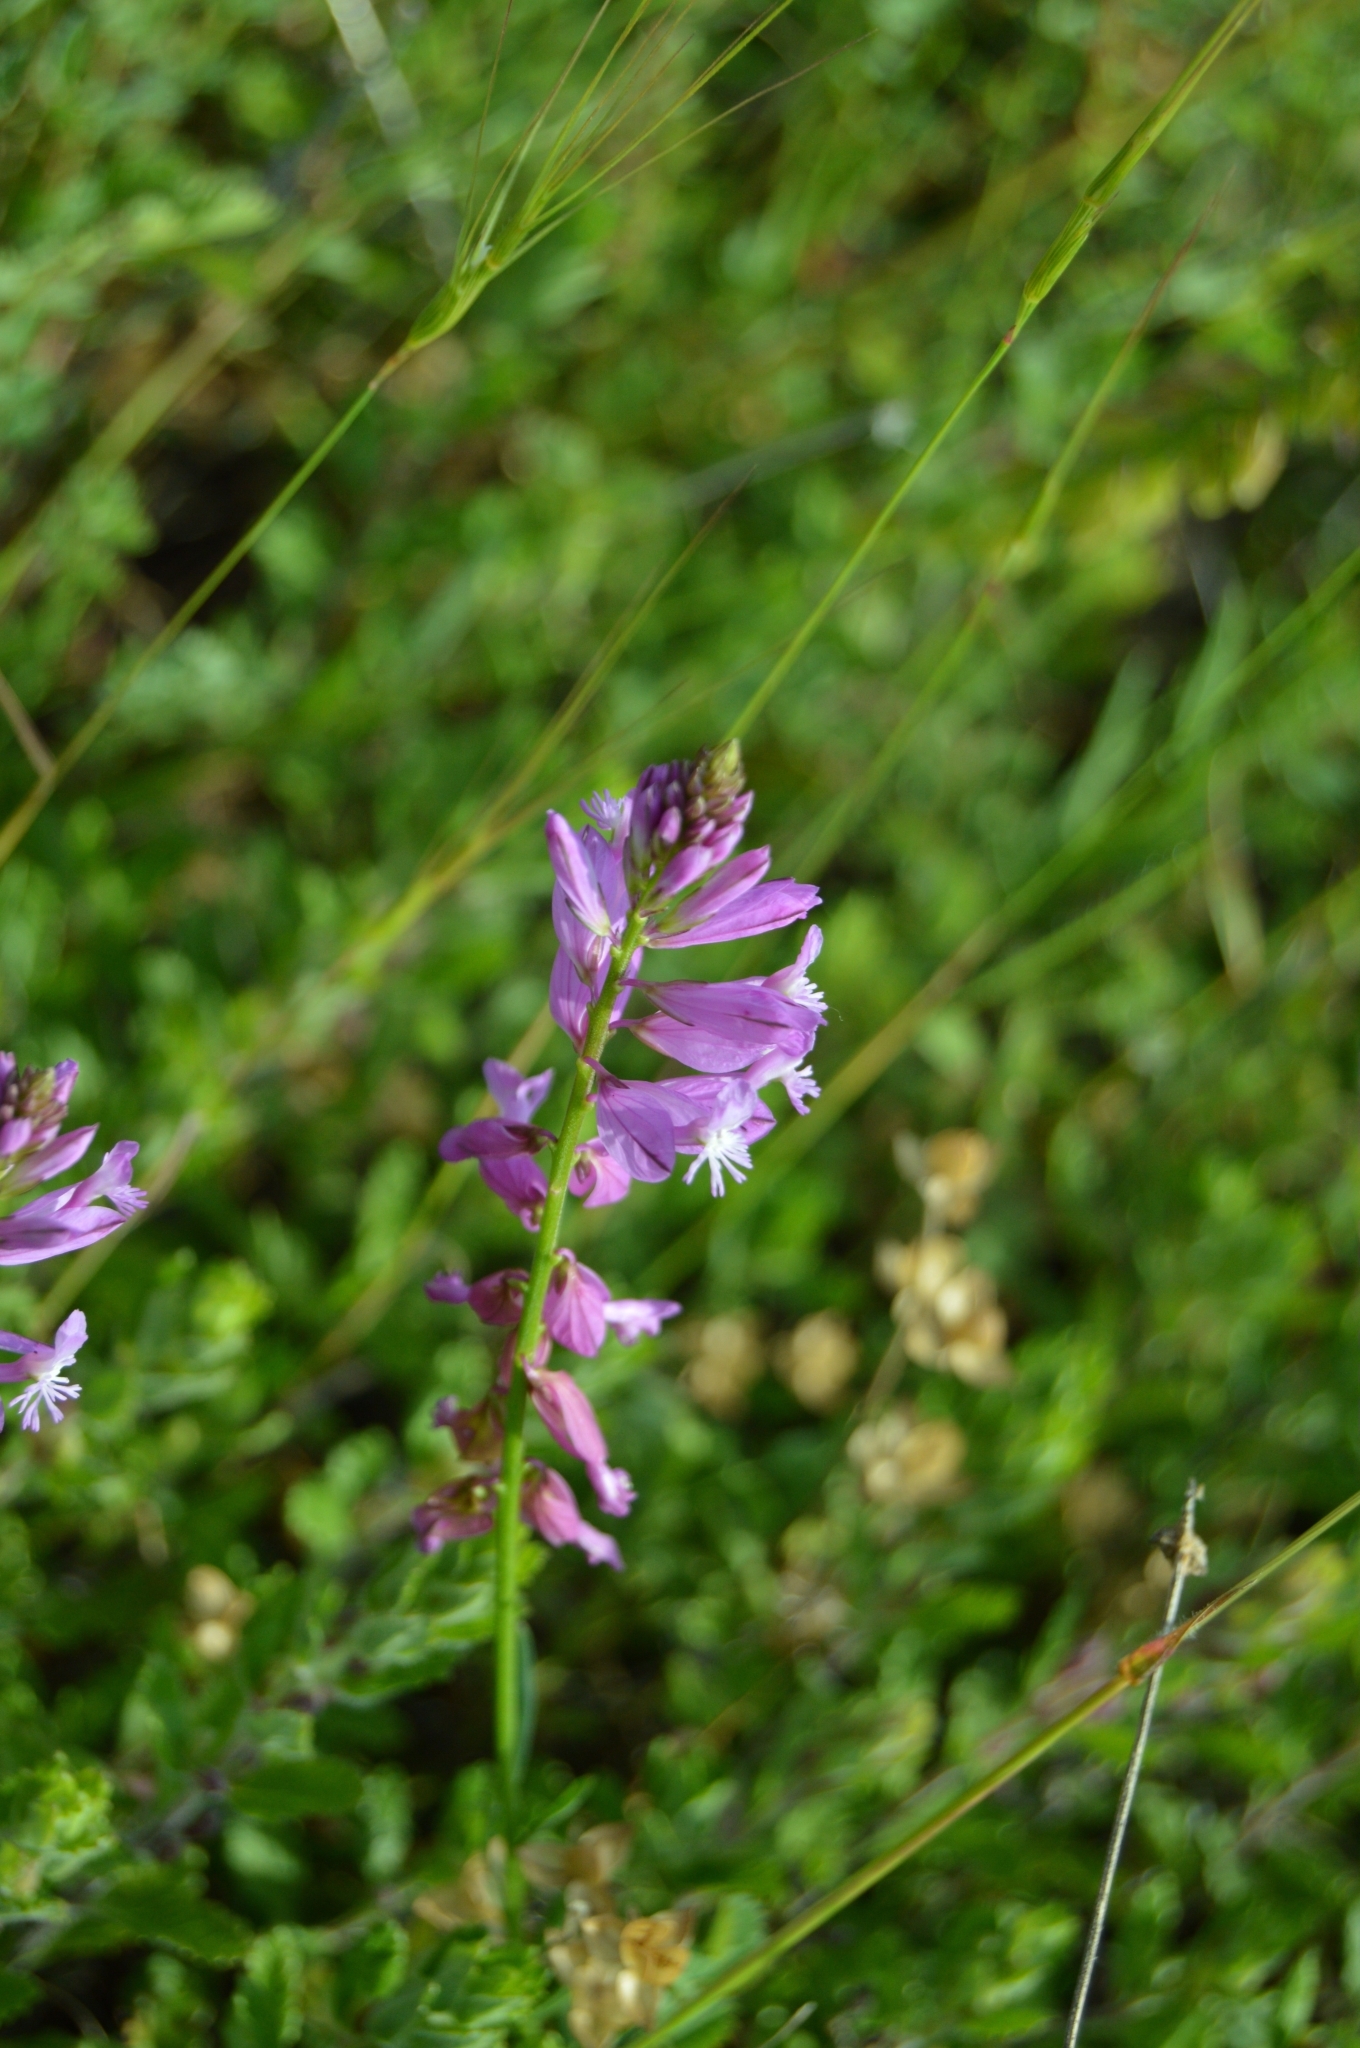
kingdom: Plantae
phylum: Tracheophyta
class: Magnoliopsida
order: Fabales
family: Polygalaceae
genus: Polygala
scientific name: Polygala major
